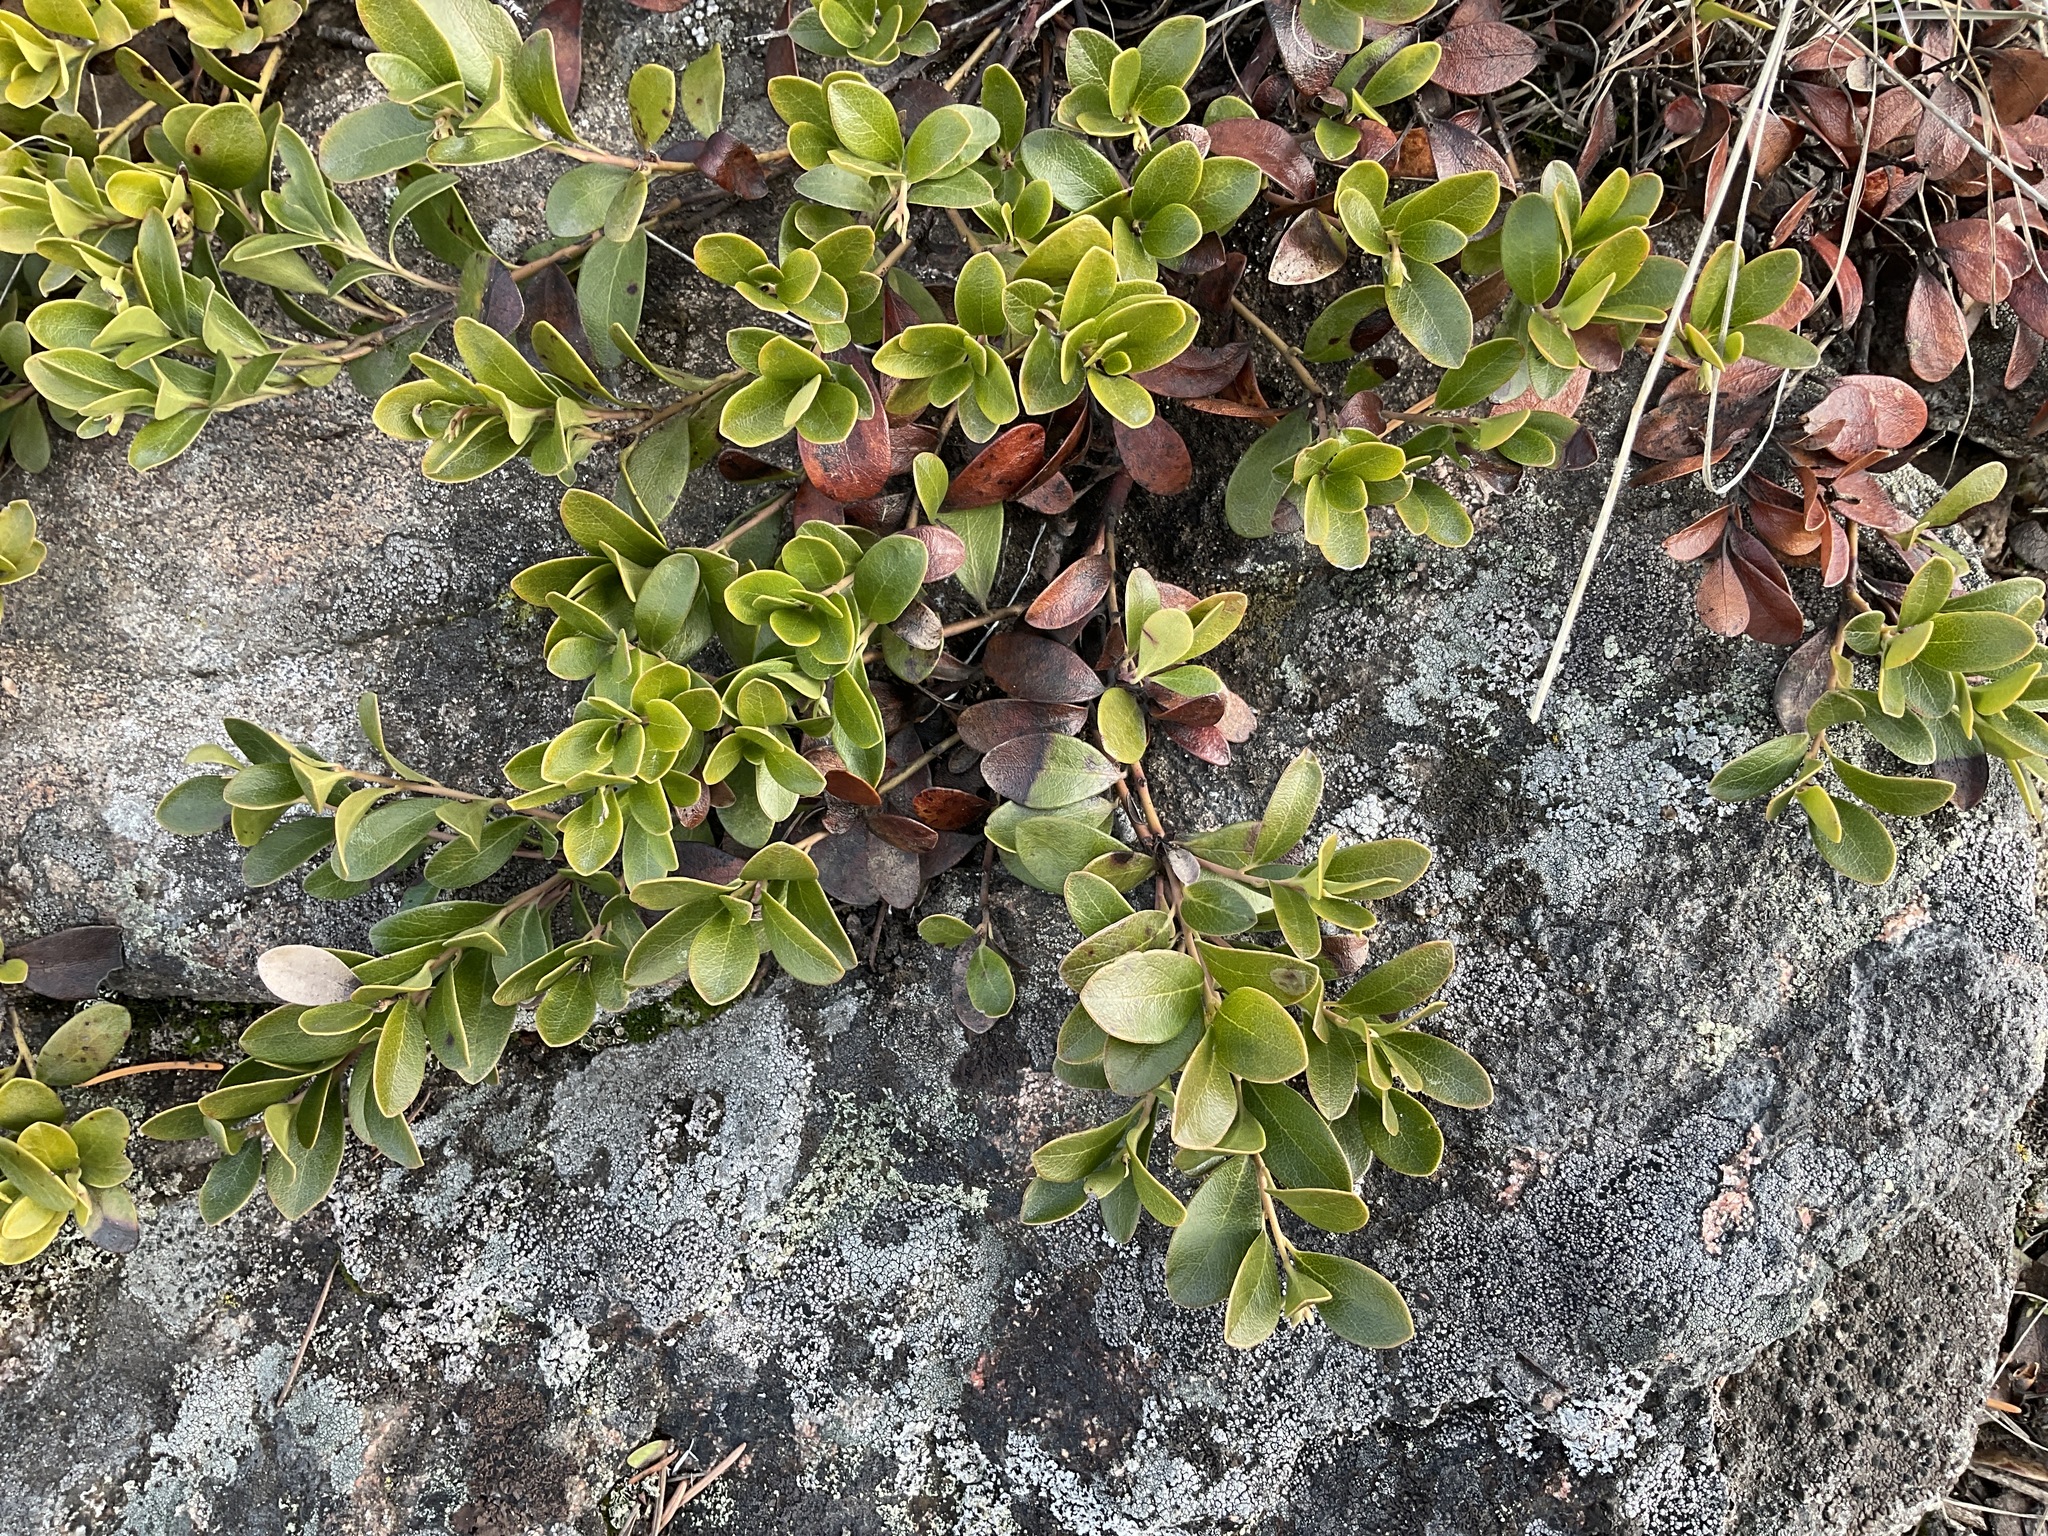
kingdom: Plantae
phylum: Tracheophyta
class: Magnoliopsida
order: Ericales
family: Ericaceae
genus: Arctostaphylos
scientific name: Arctostaphylos uva-ursi
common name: Bearberry
